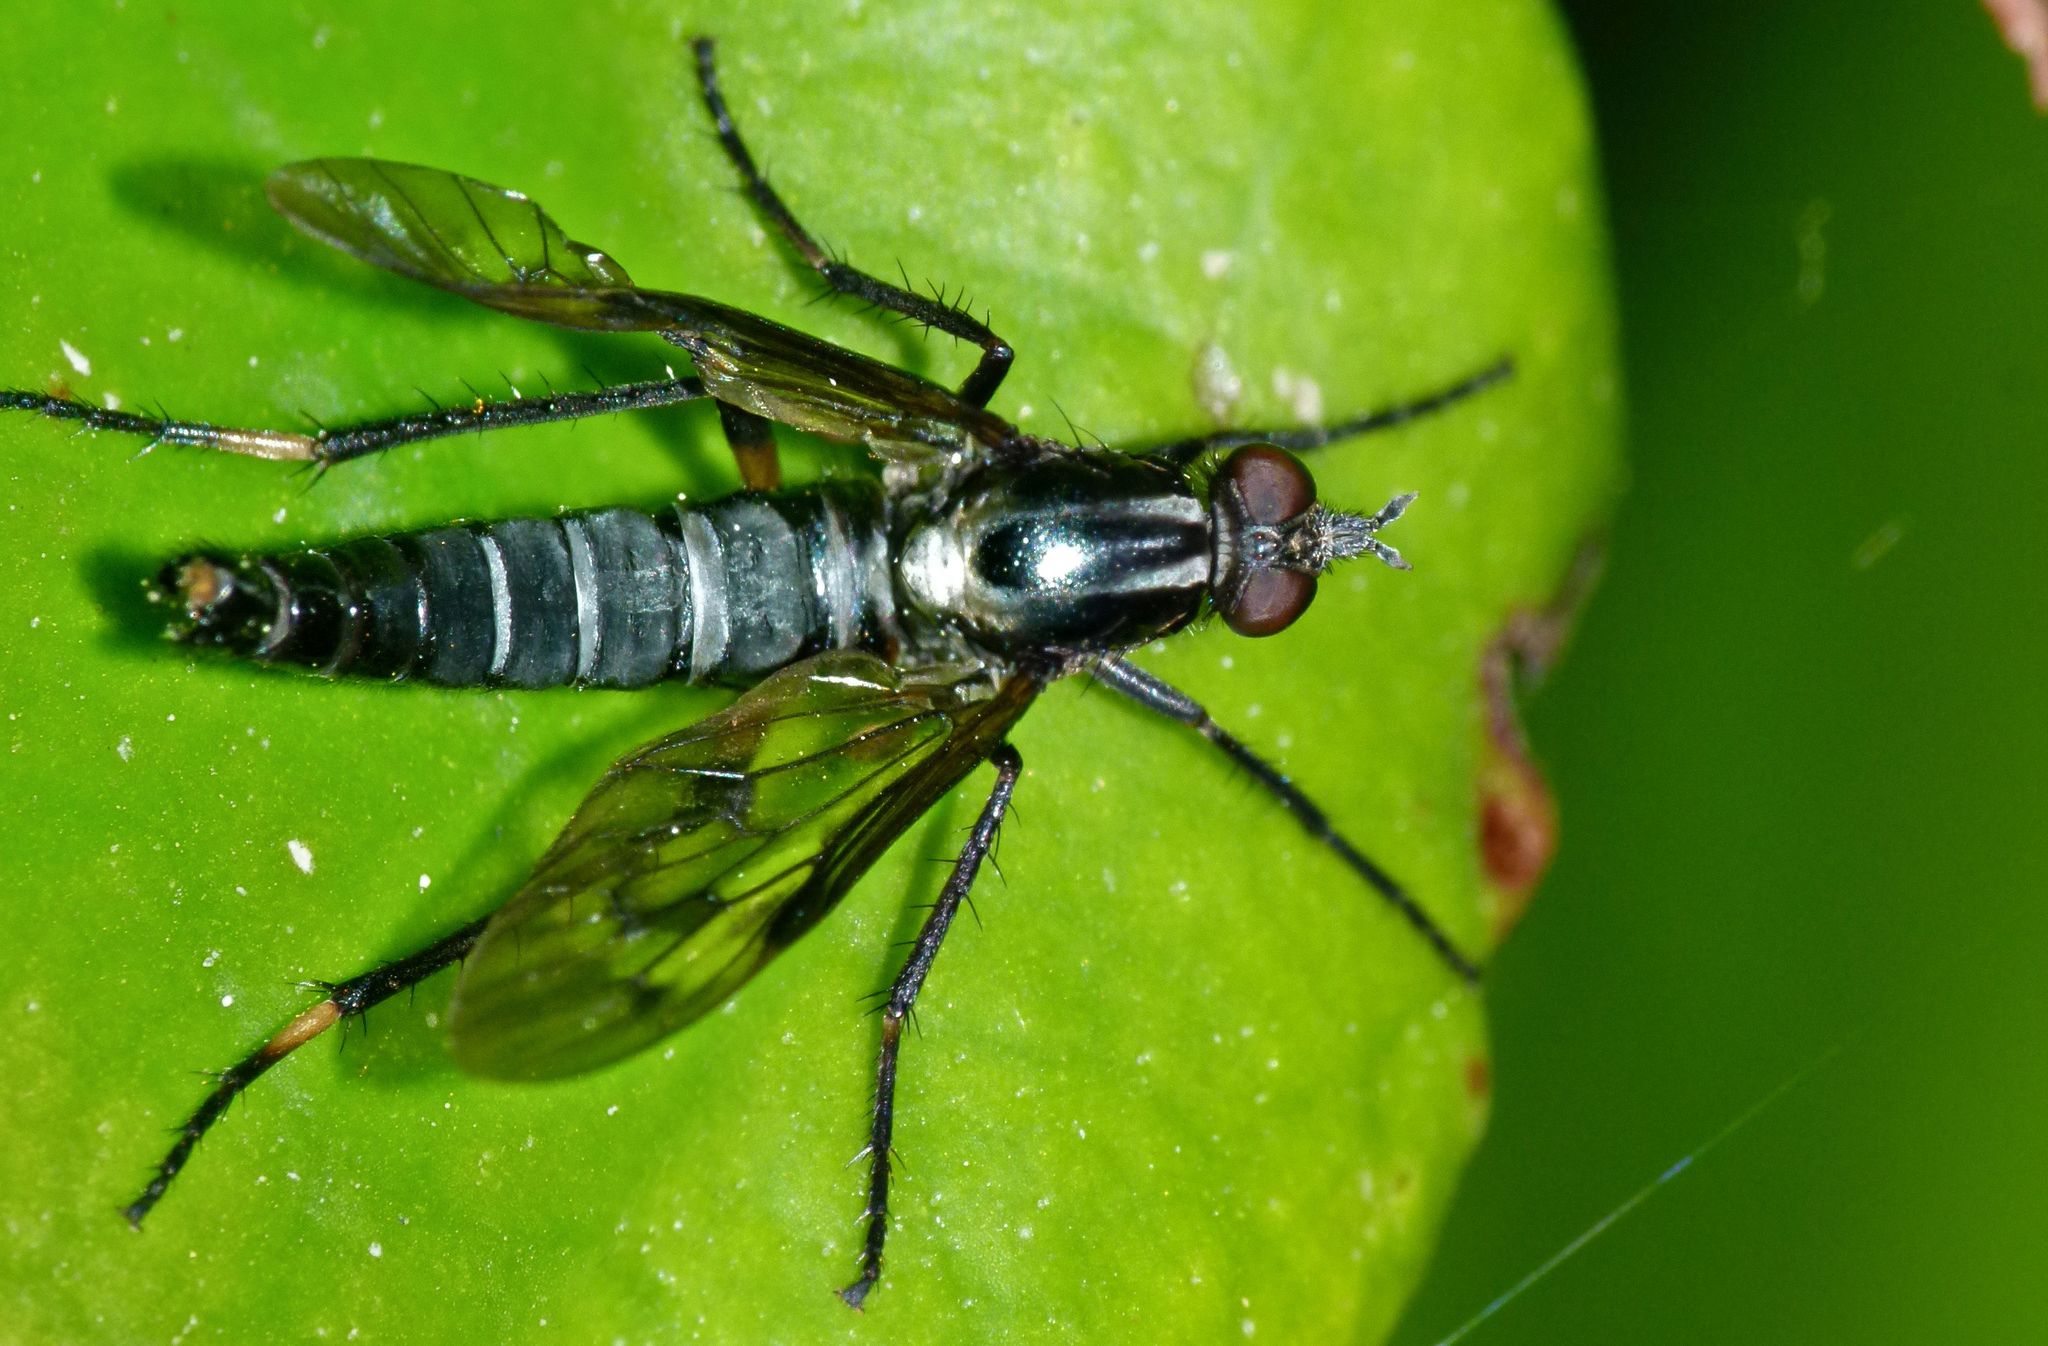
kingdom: Animalia
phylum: Arthropoda
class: Insecta
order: Diptera
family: Therevidae
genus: Anabarhynchus
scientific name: Anabarhynchus micans
